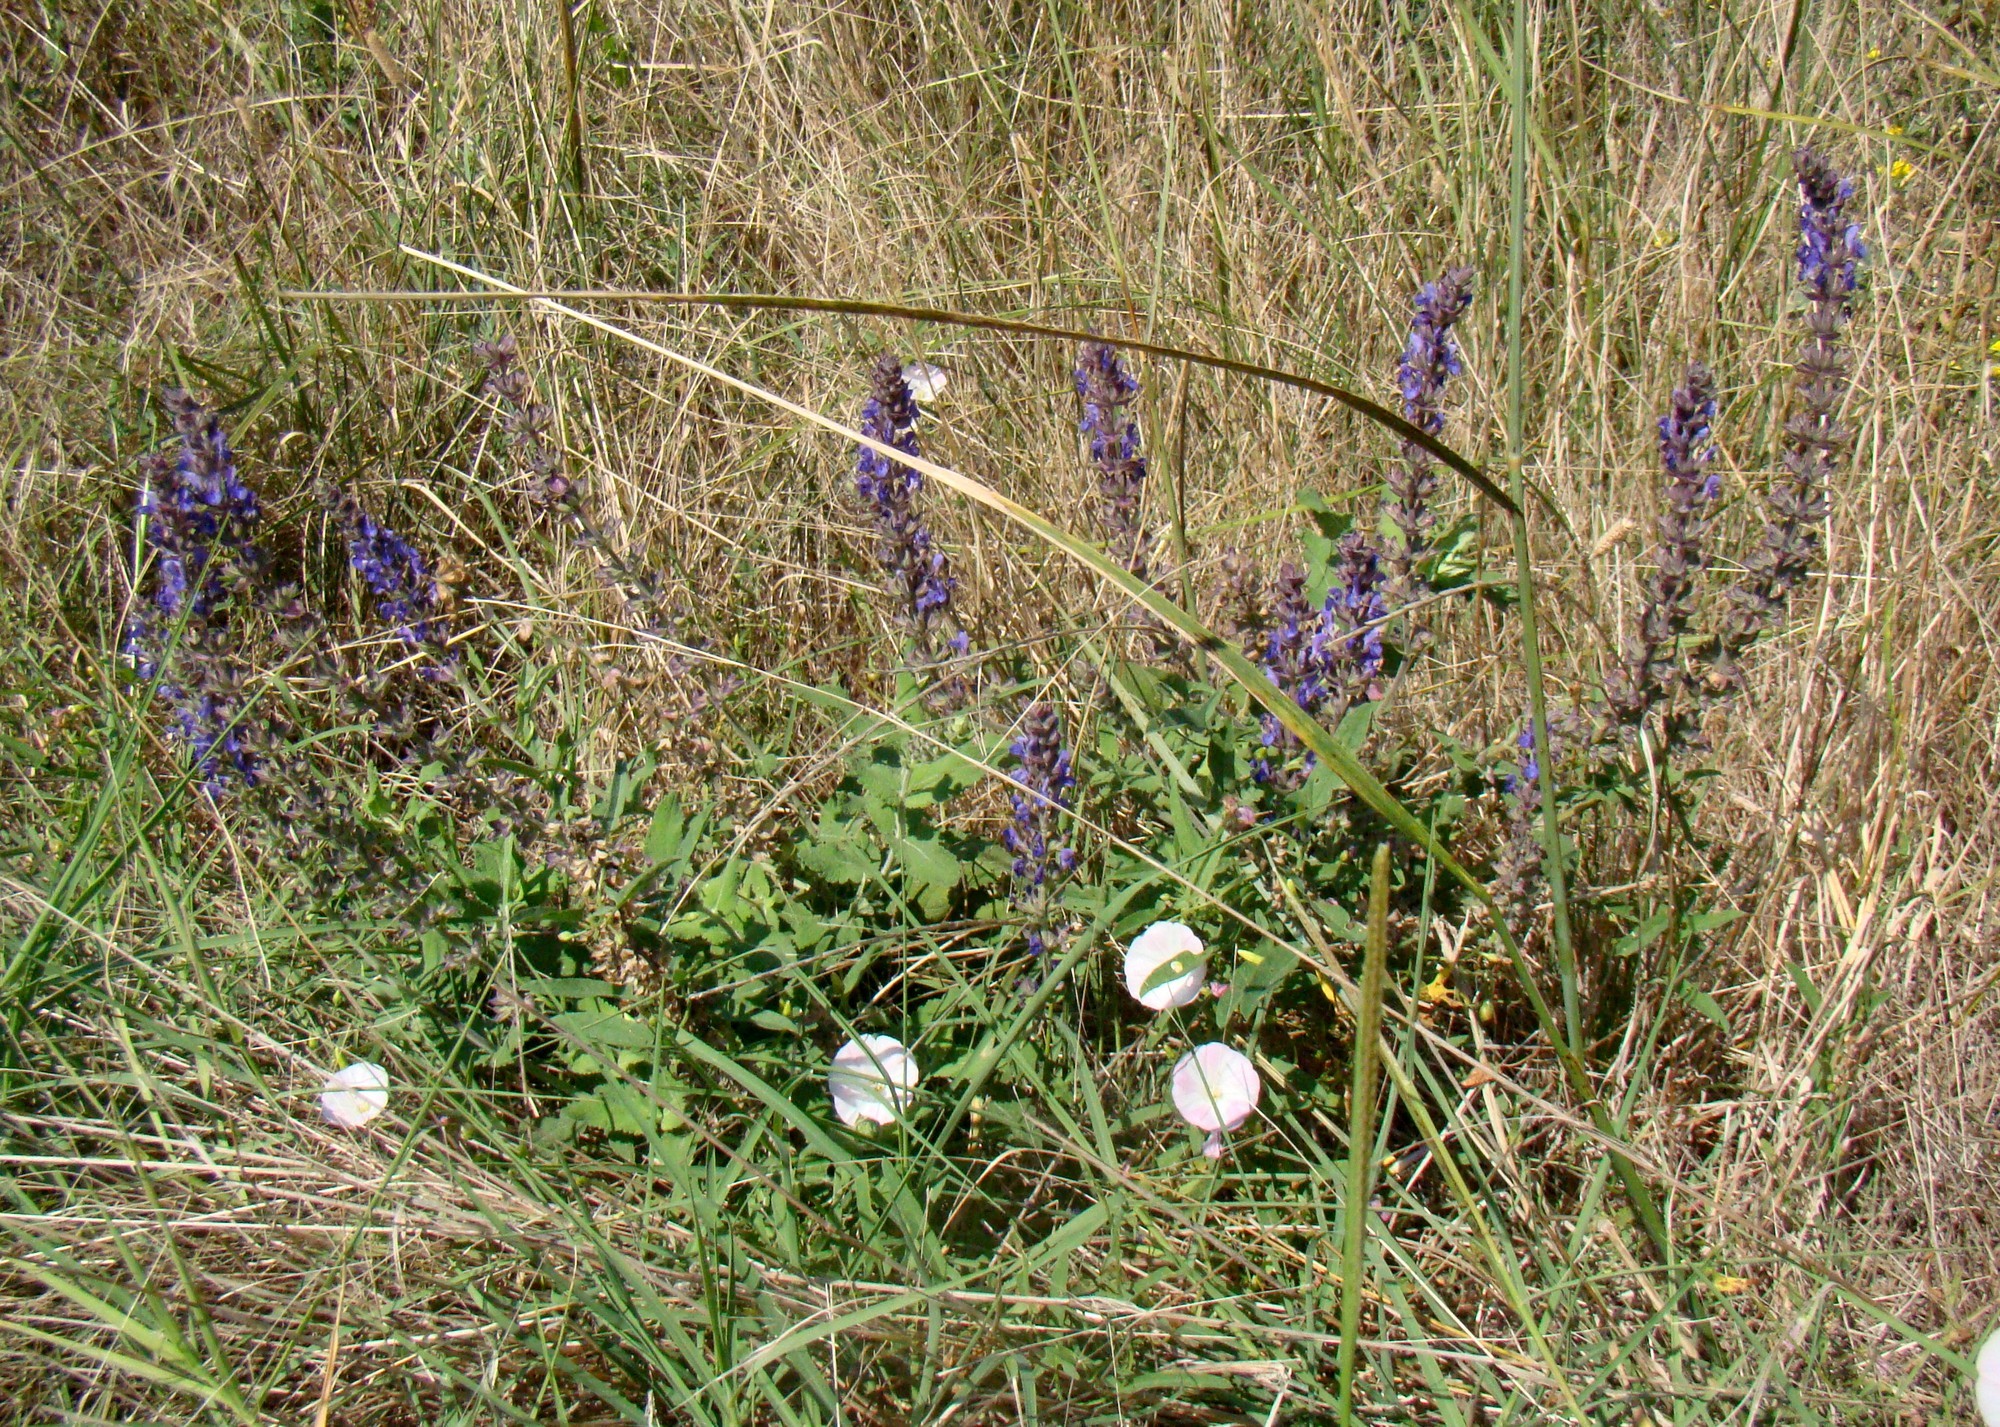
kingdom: Plantae
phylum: Tracheophyta
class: Magnoliopsida
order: Lamiales
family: Lamiaceae
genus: Salvia
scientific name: Salvia nemorosa
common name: Balkan clary
